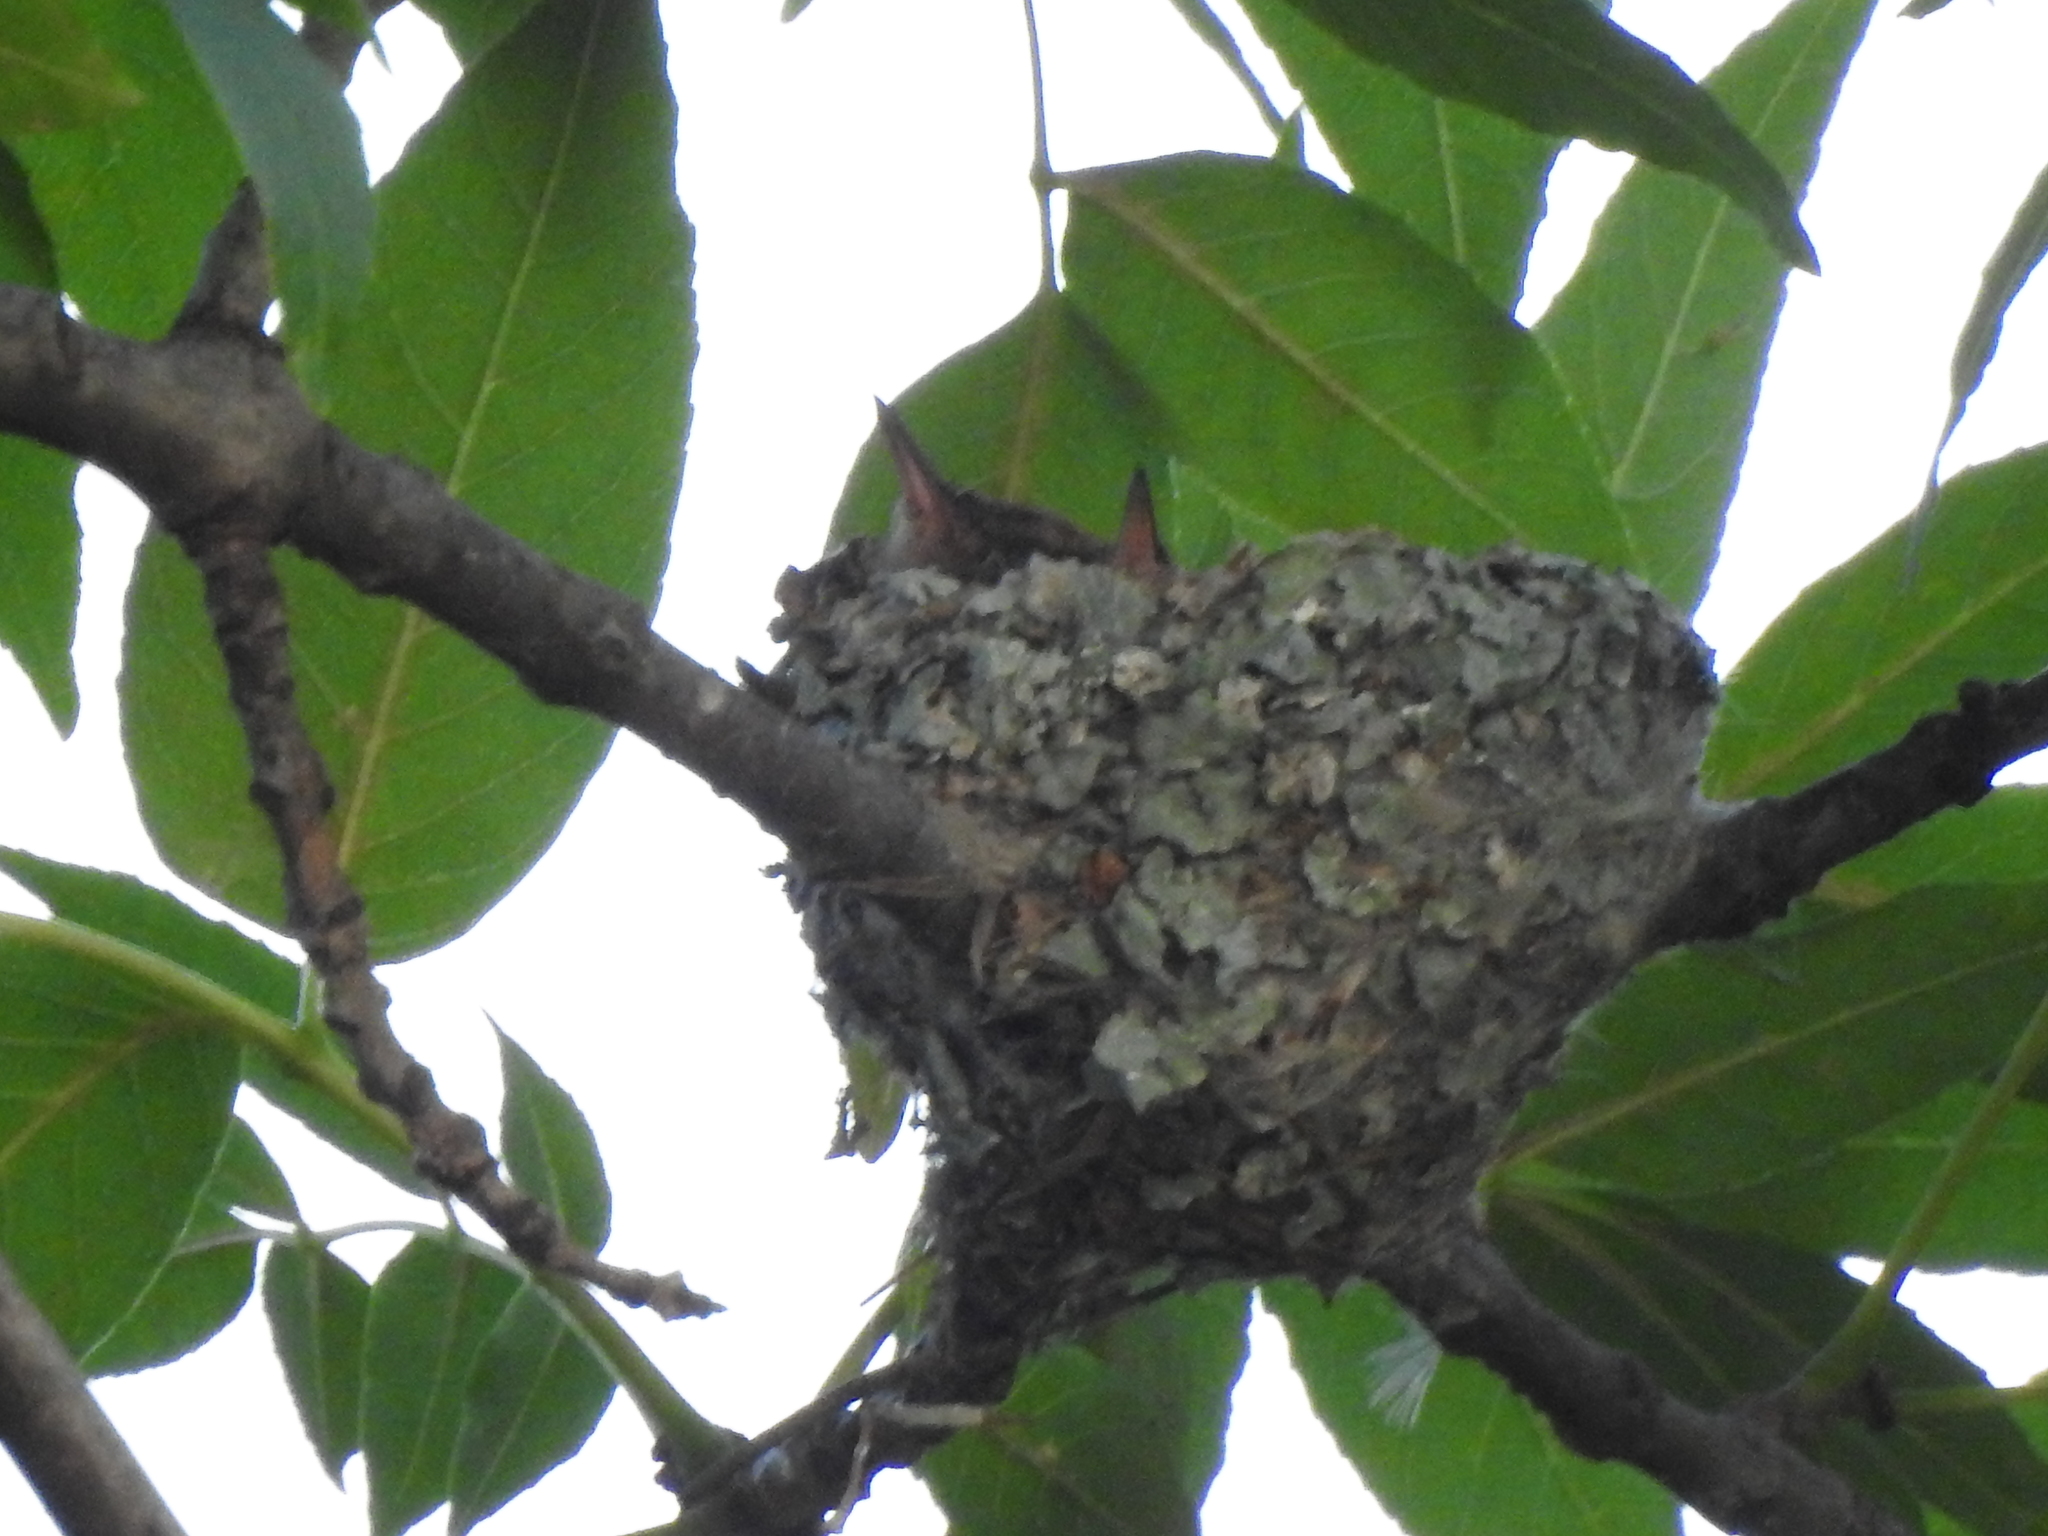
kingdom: Animalia
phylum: Chordata
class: Aves
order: Apodiformes
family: Trochilidae
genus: Saucerottia
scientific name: Saucerottia beryllina
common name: Berylline hummingbird
